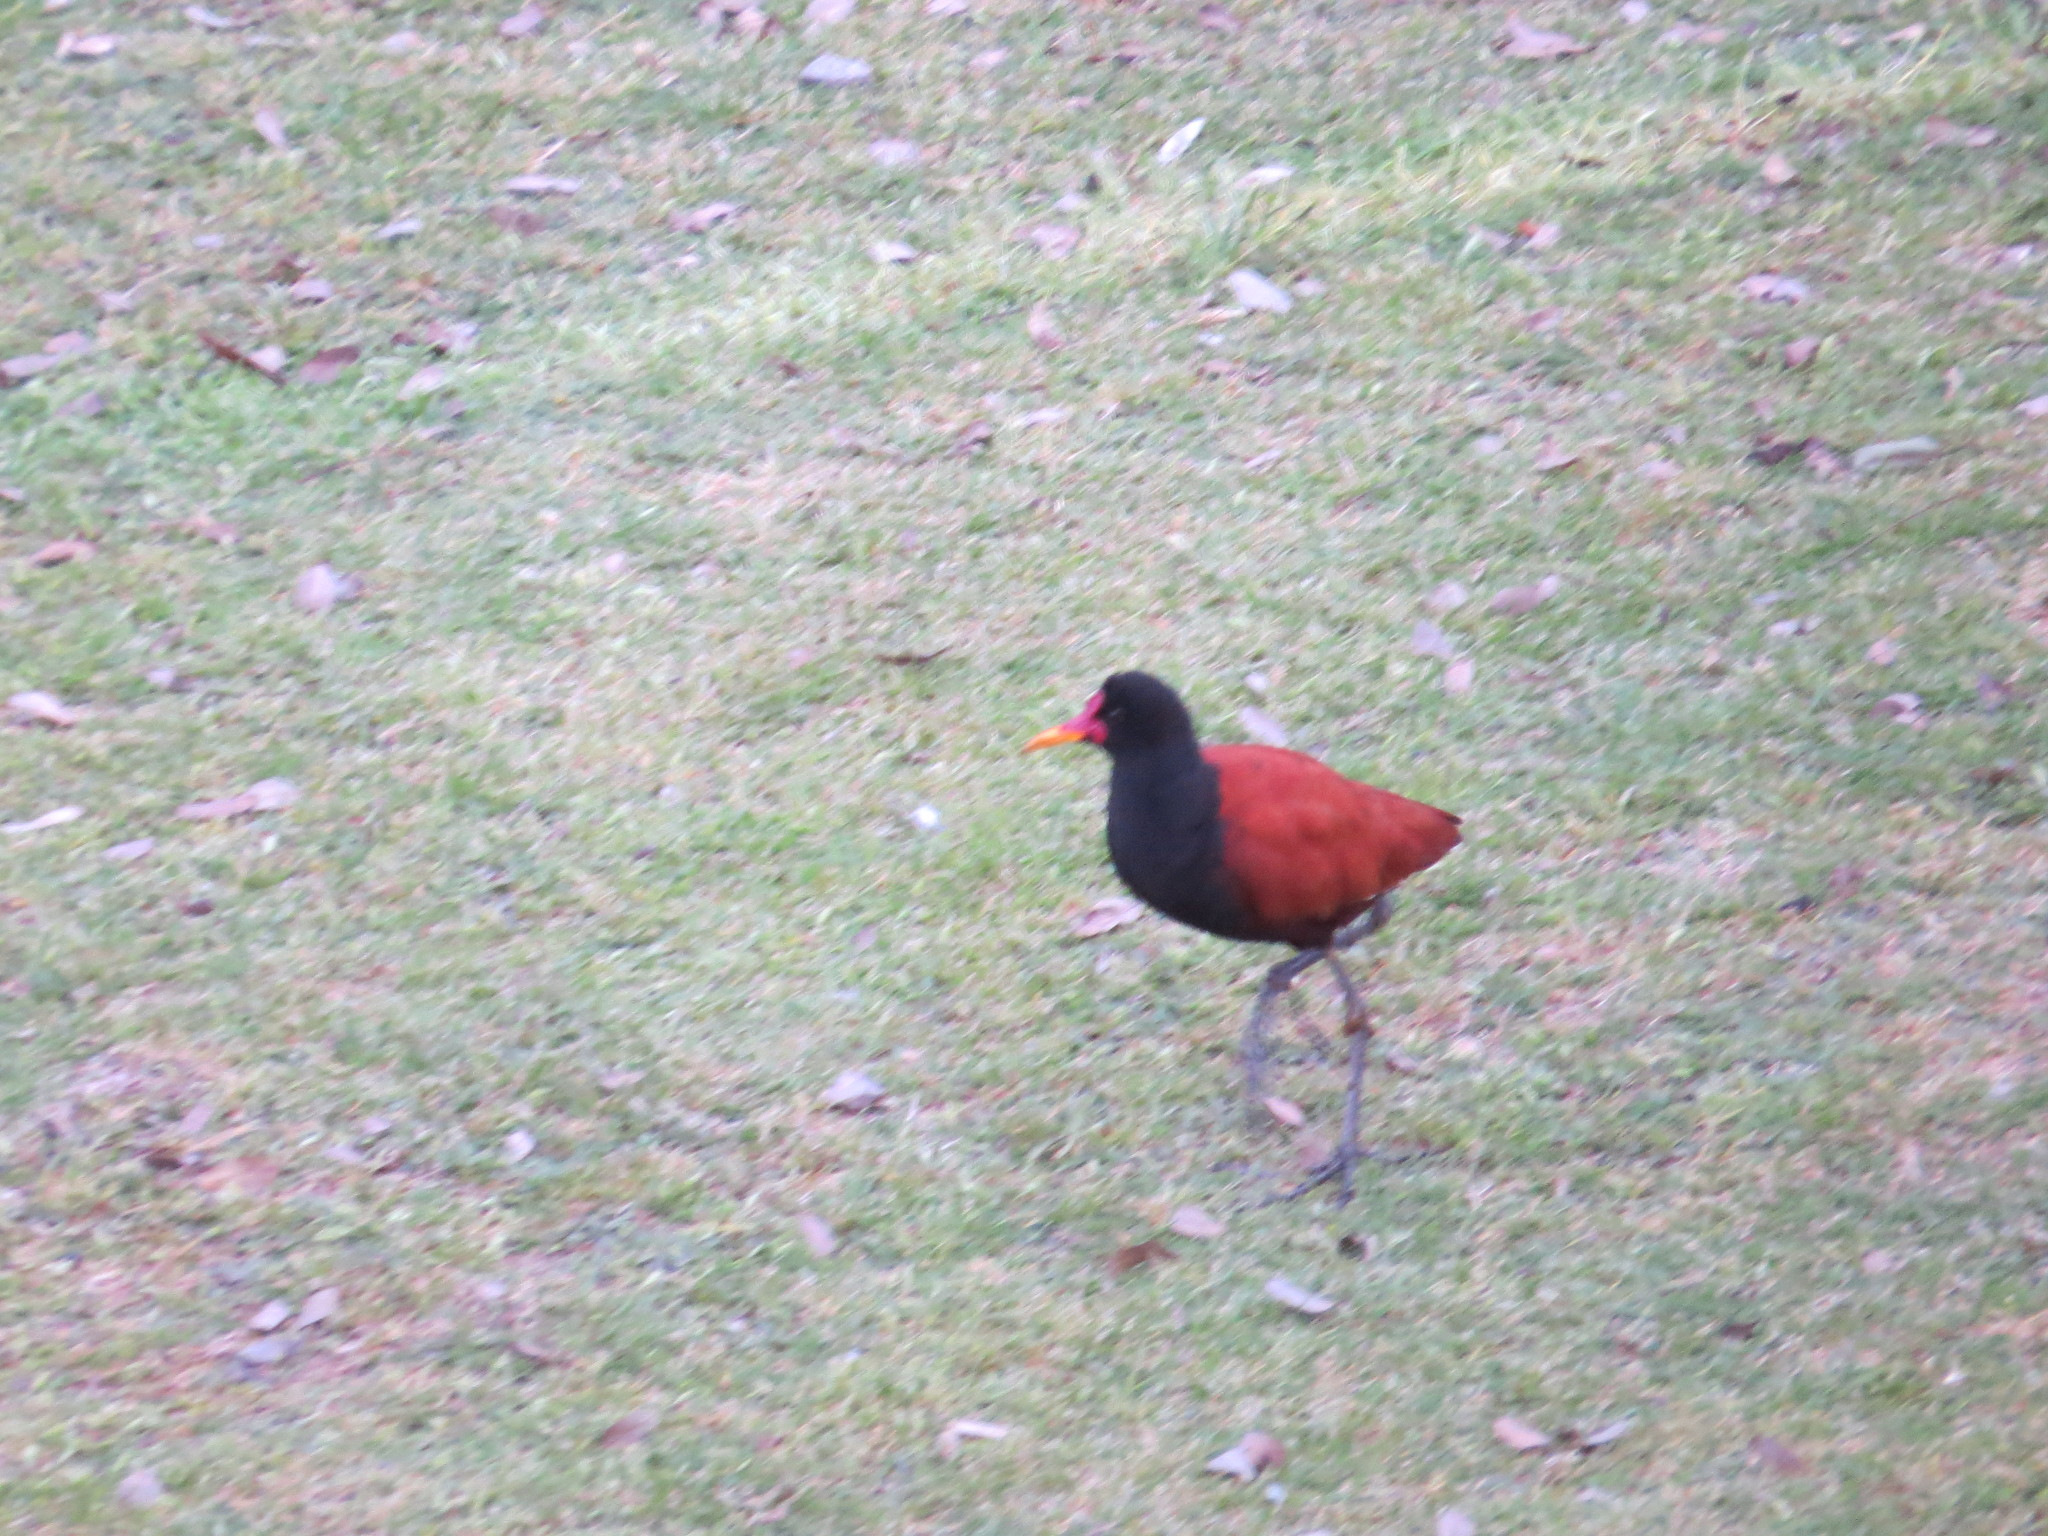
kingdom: Animalia
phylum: Chordata
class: Aves
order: Charadriiformes
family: Jacanidae
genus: Jacana
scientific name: Jacana jacana
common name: Wattled jacana
